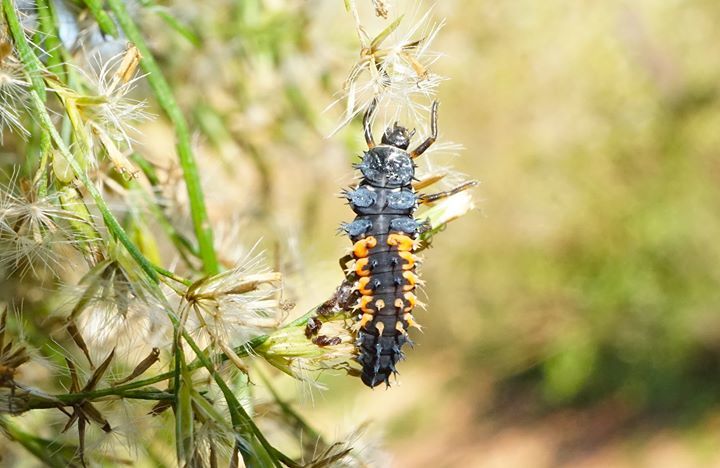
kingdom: Animalia
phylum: Arthropoda
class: Insecta
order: Coleoptera
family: Coccinellidae
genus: Harmonia
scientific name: Harmonia axyridis
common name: Harlequin ladybird
